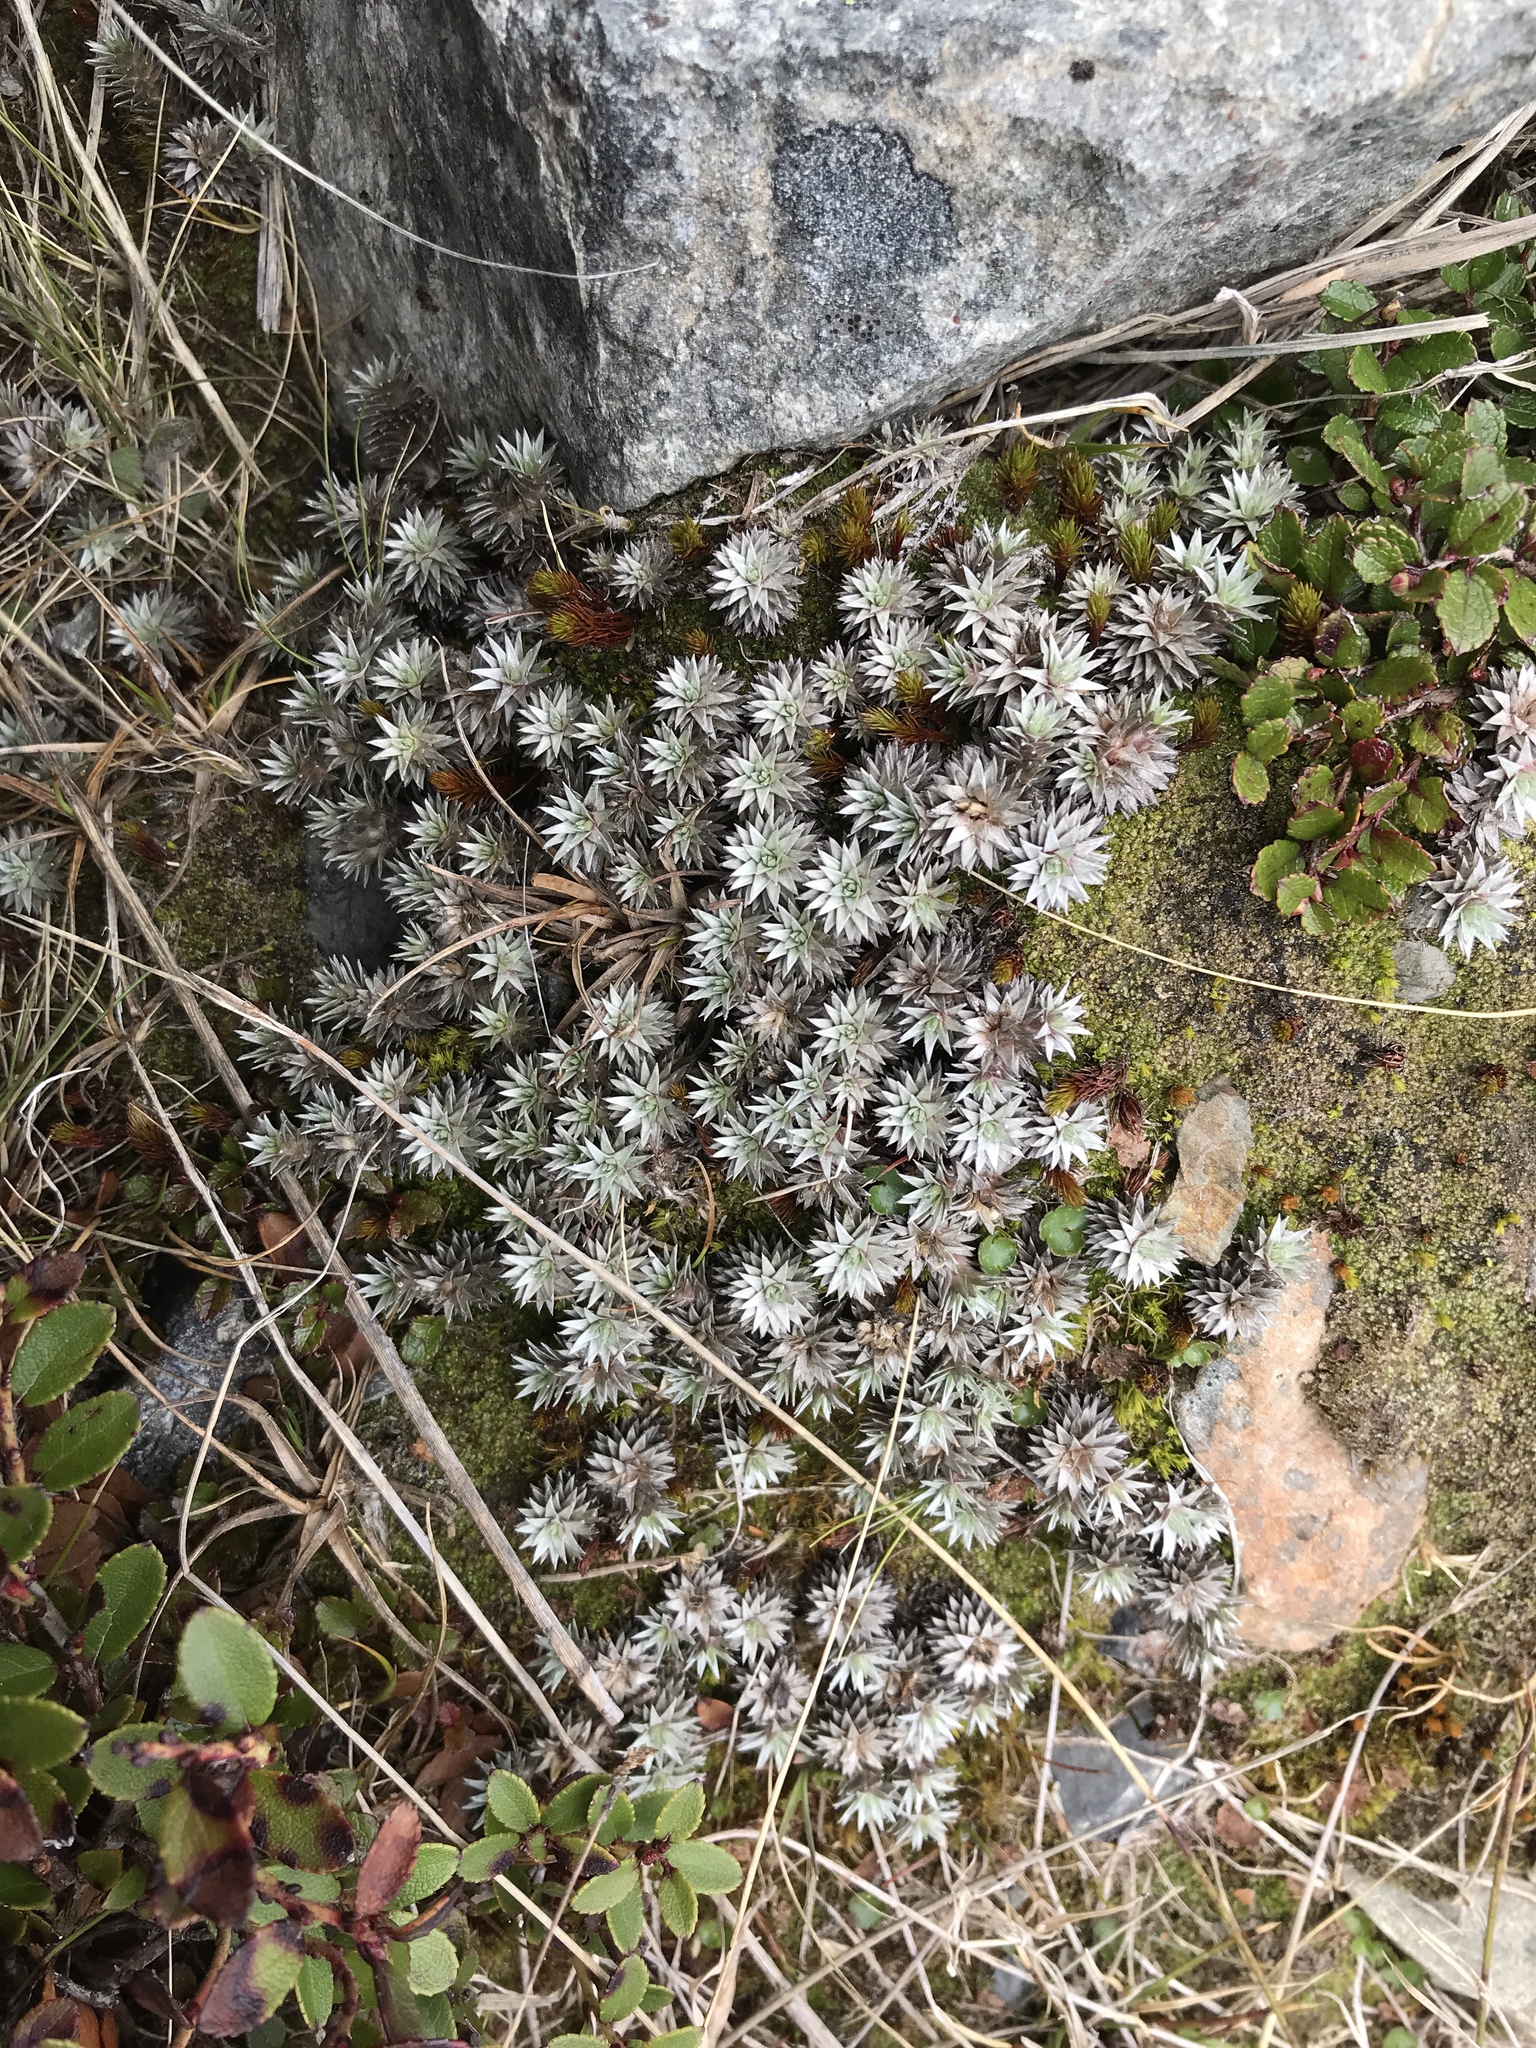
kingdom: Plantae
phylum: Tracheophyta
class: Magnoliopsida
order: Asterales
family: Asteraceae
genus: Raoulia
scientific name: Raoulia grandiflora
